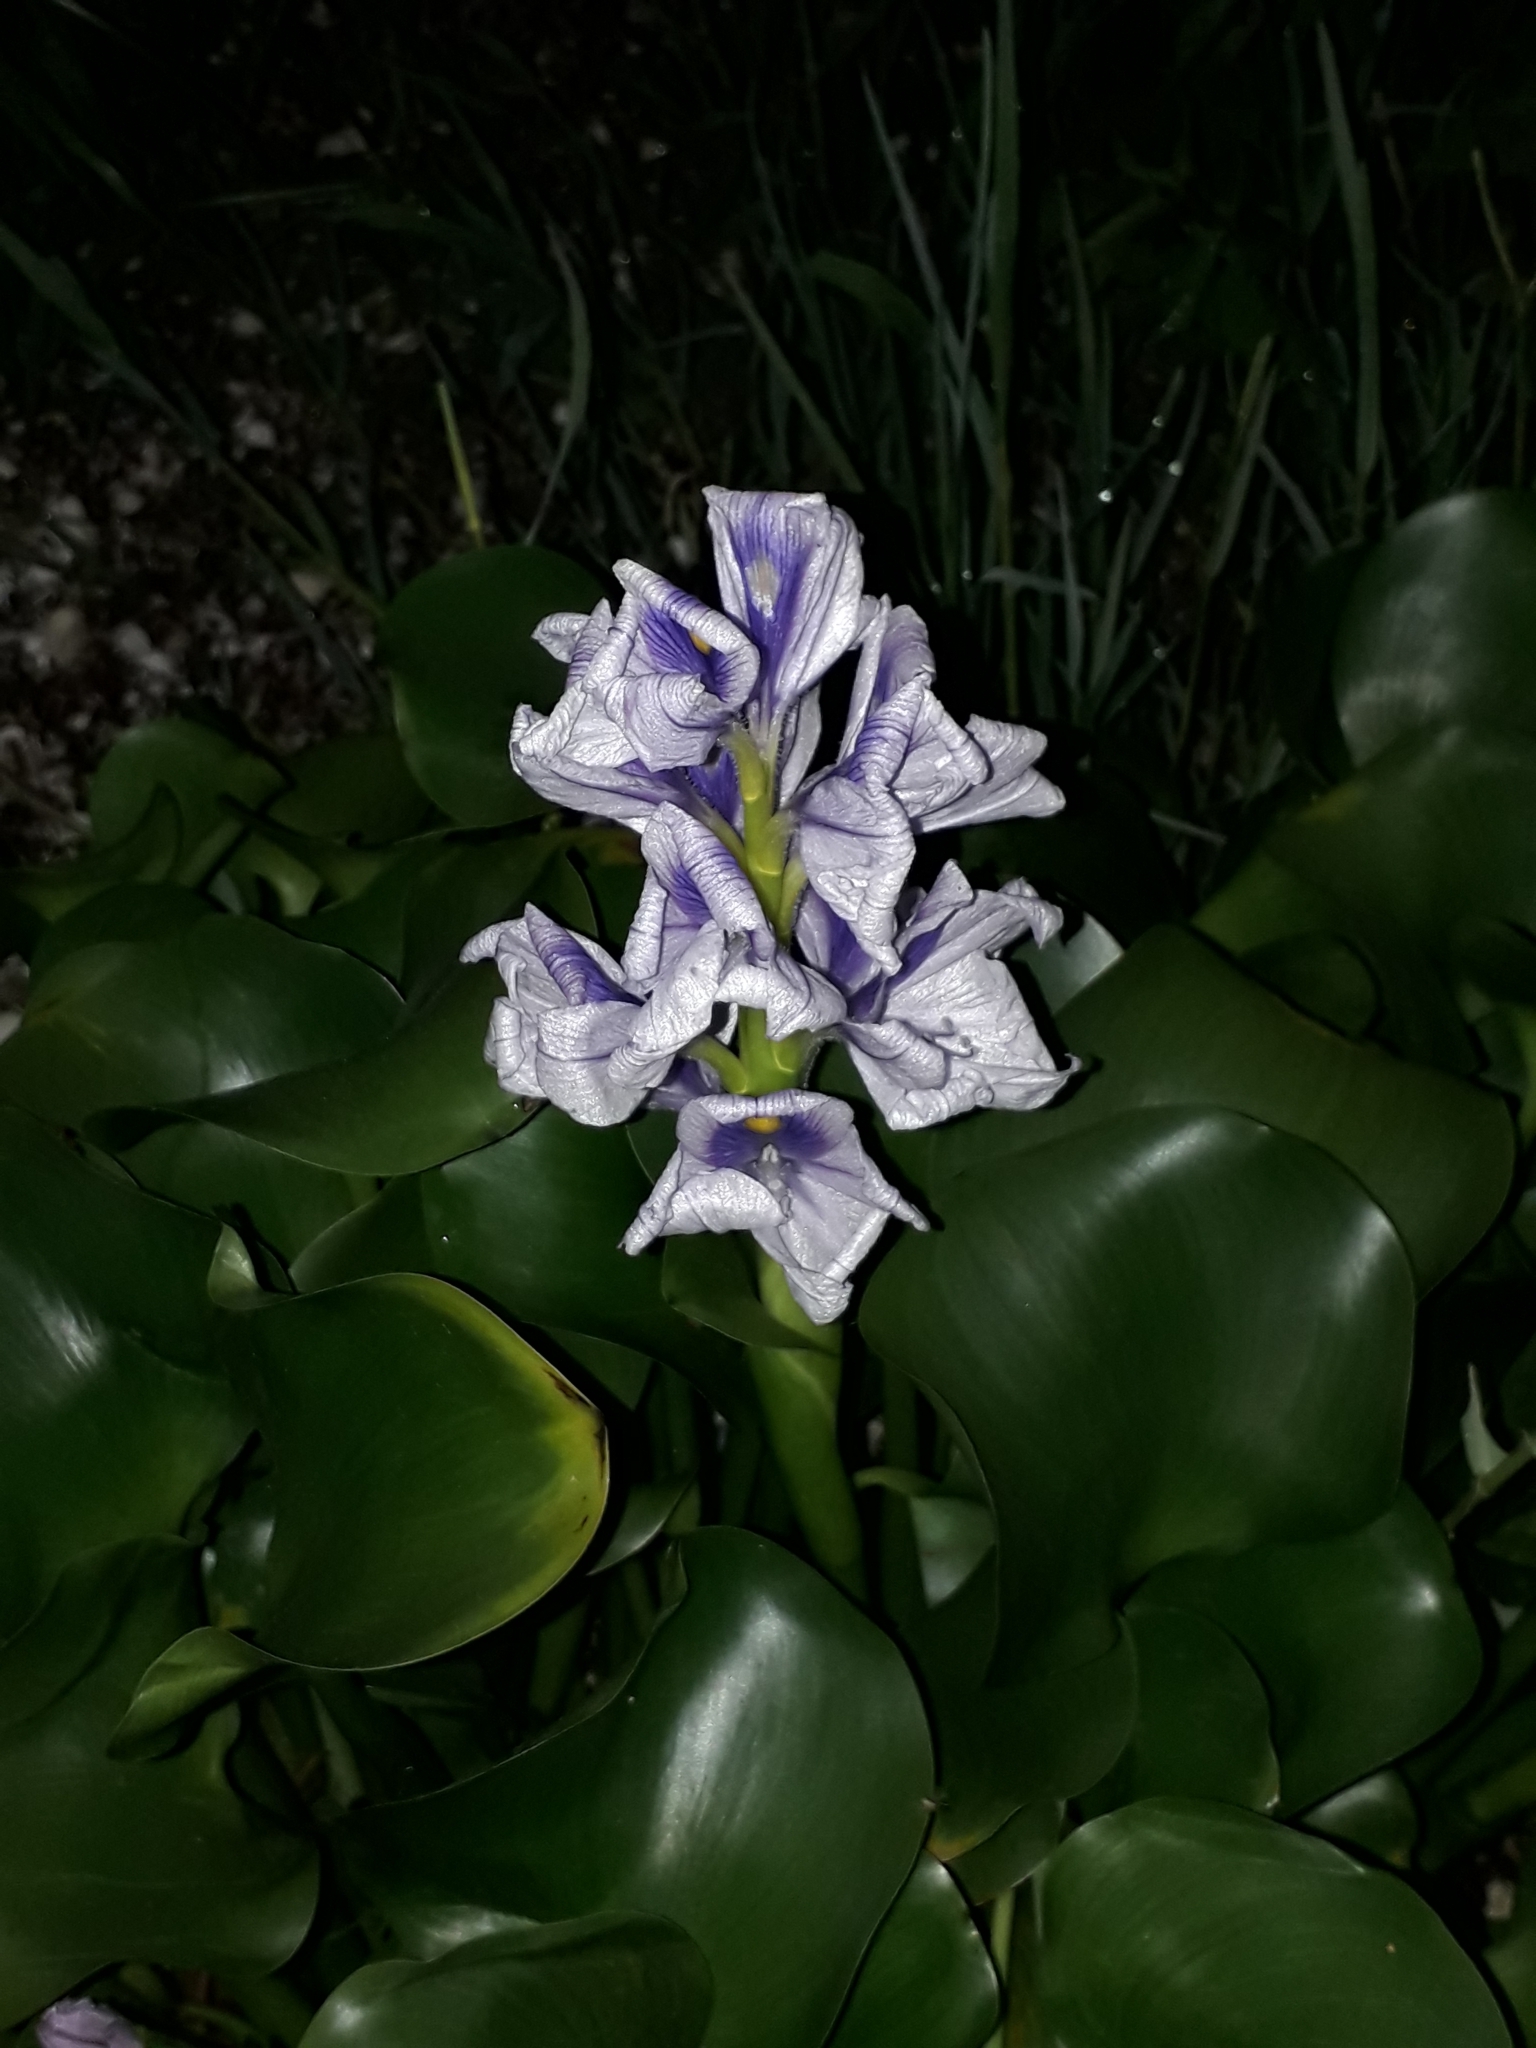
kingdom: Plantae
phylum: Tracheophyta
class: Liliopsida
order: Commelinales
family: Pontederiaceae
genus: Pontederia
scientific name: Pontederia crassipes
